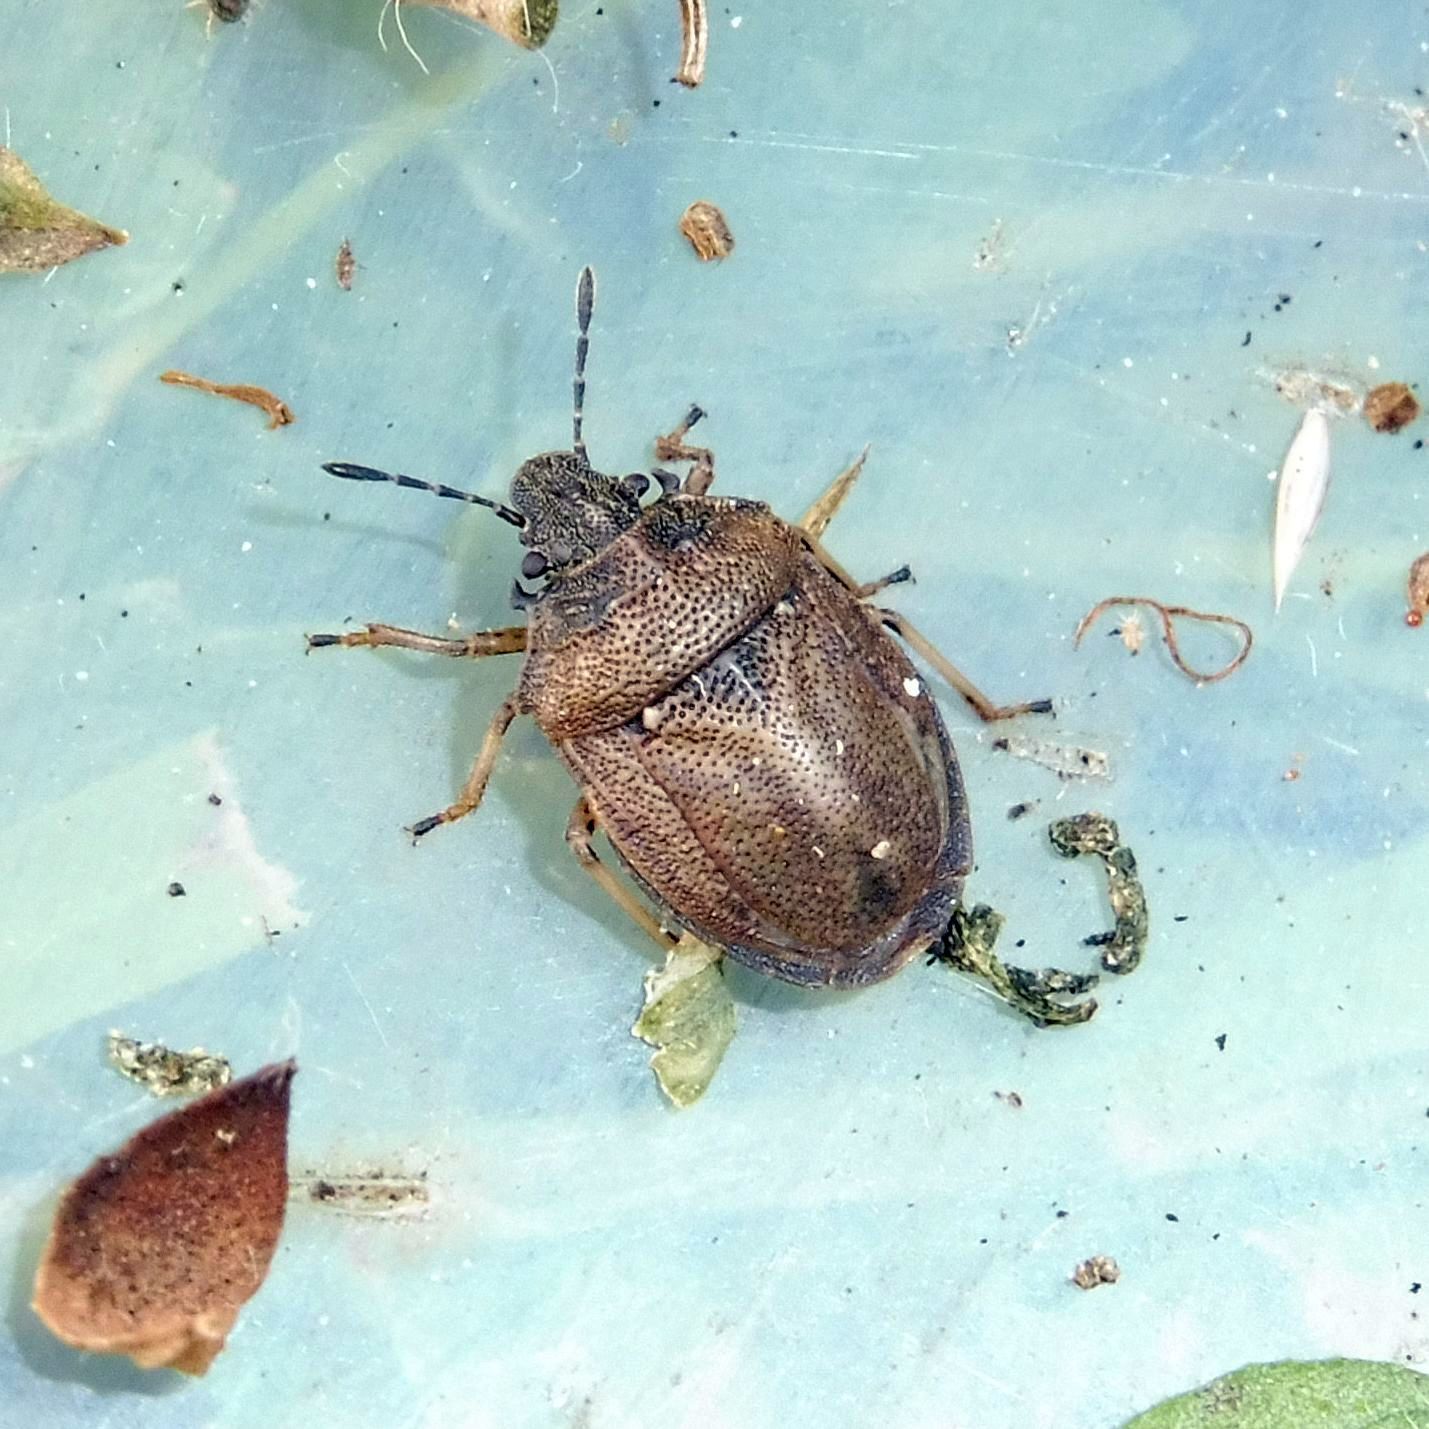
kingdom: Animalia
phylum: Arthropoda
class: Insecta
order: Hemiptera
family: Pentatomidae
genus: Podops
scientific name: Podops inunctus
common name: Turtle bug
